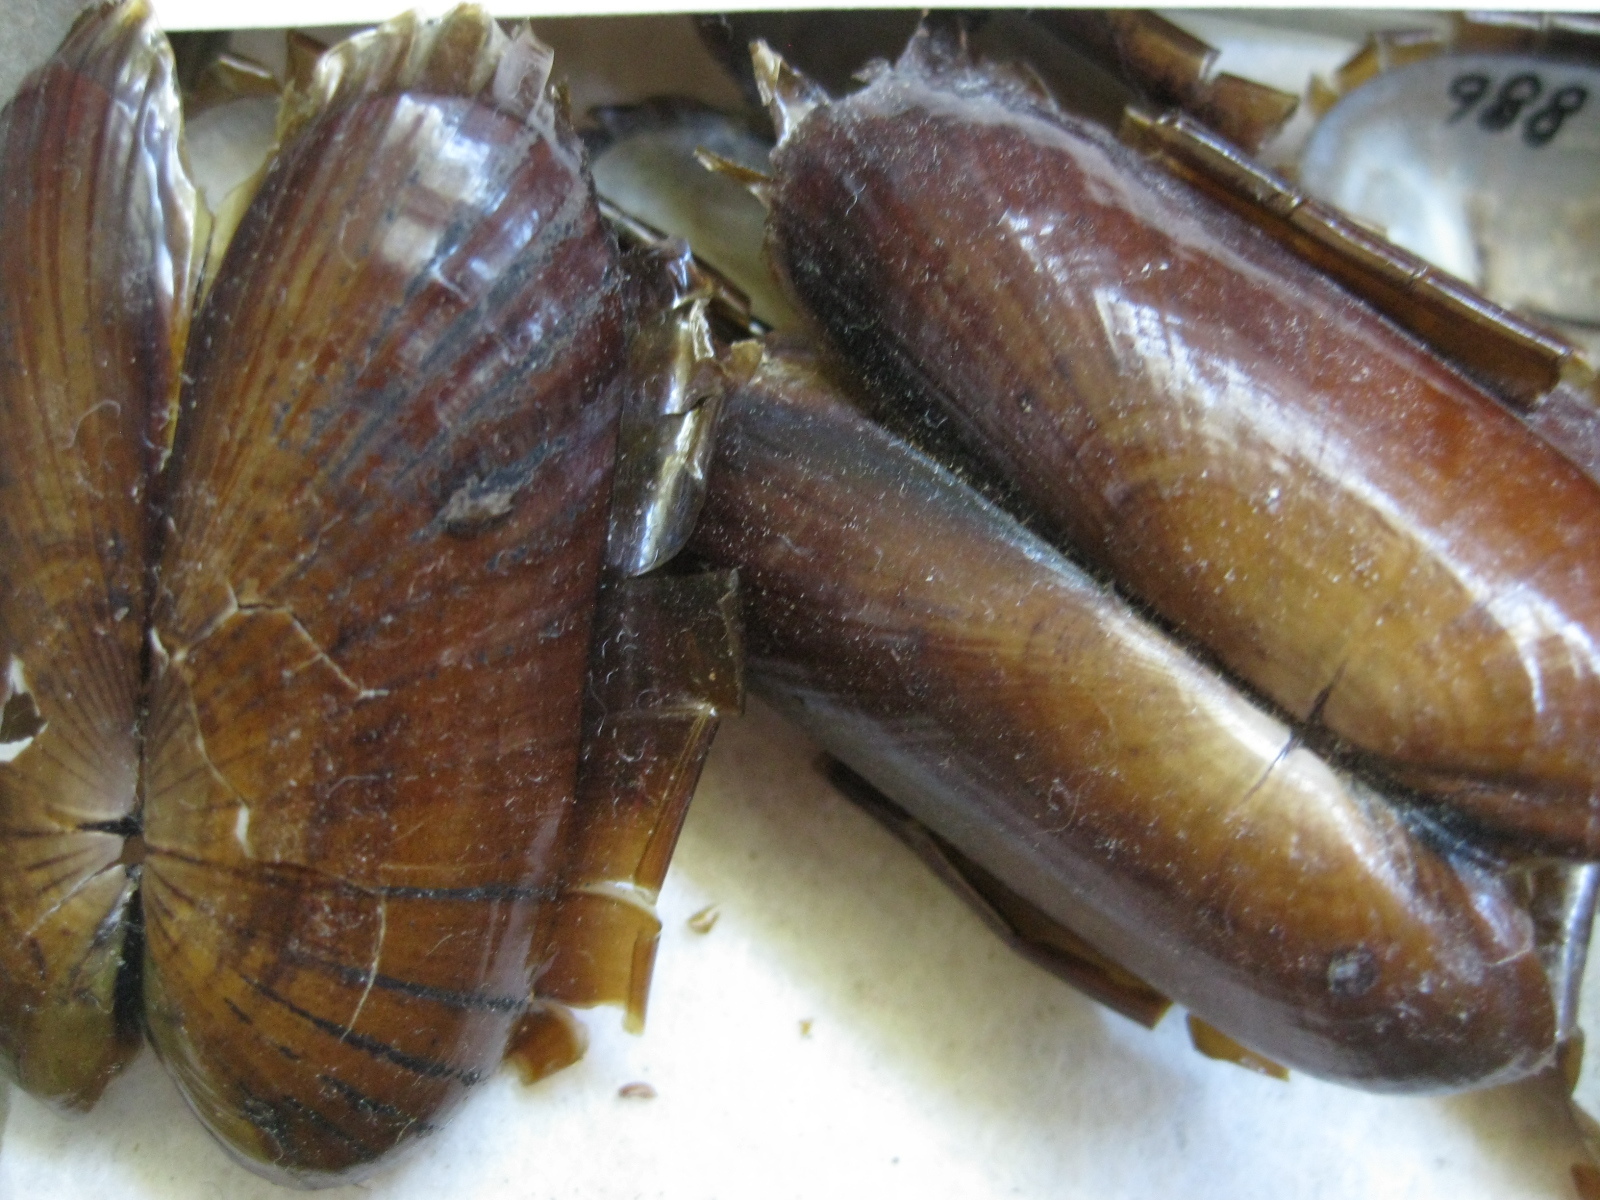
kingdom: Animalia
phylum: Mollusca
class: Bivalvia
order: Solemyida
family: Solemyidae
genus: Solemya
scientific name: Solemya parkinsonii
